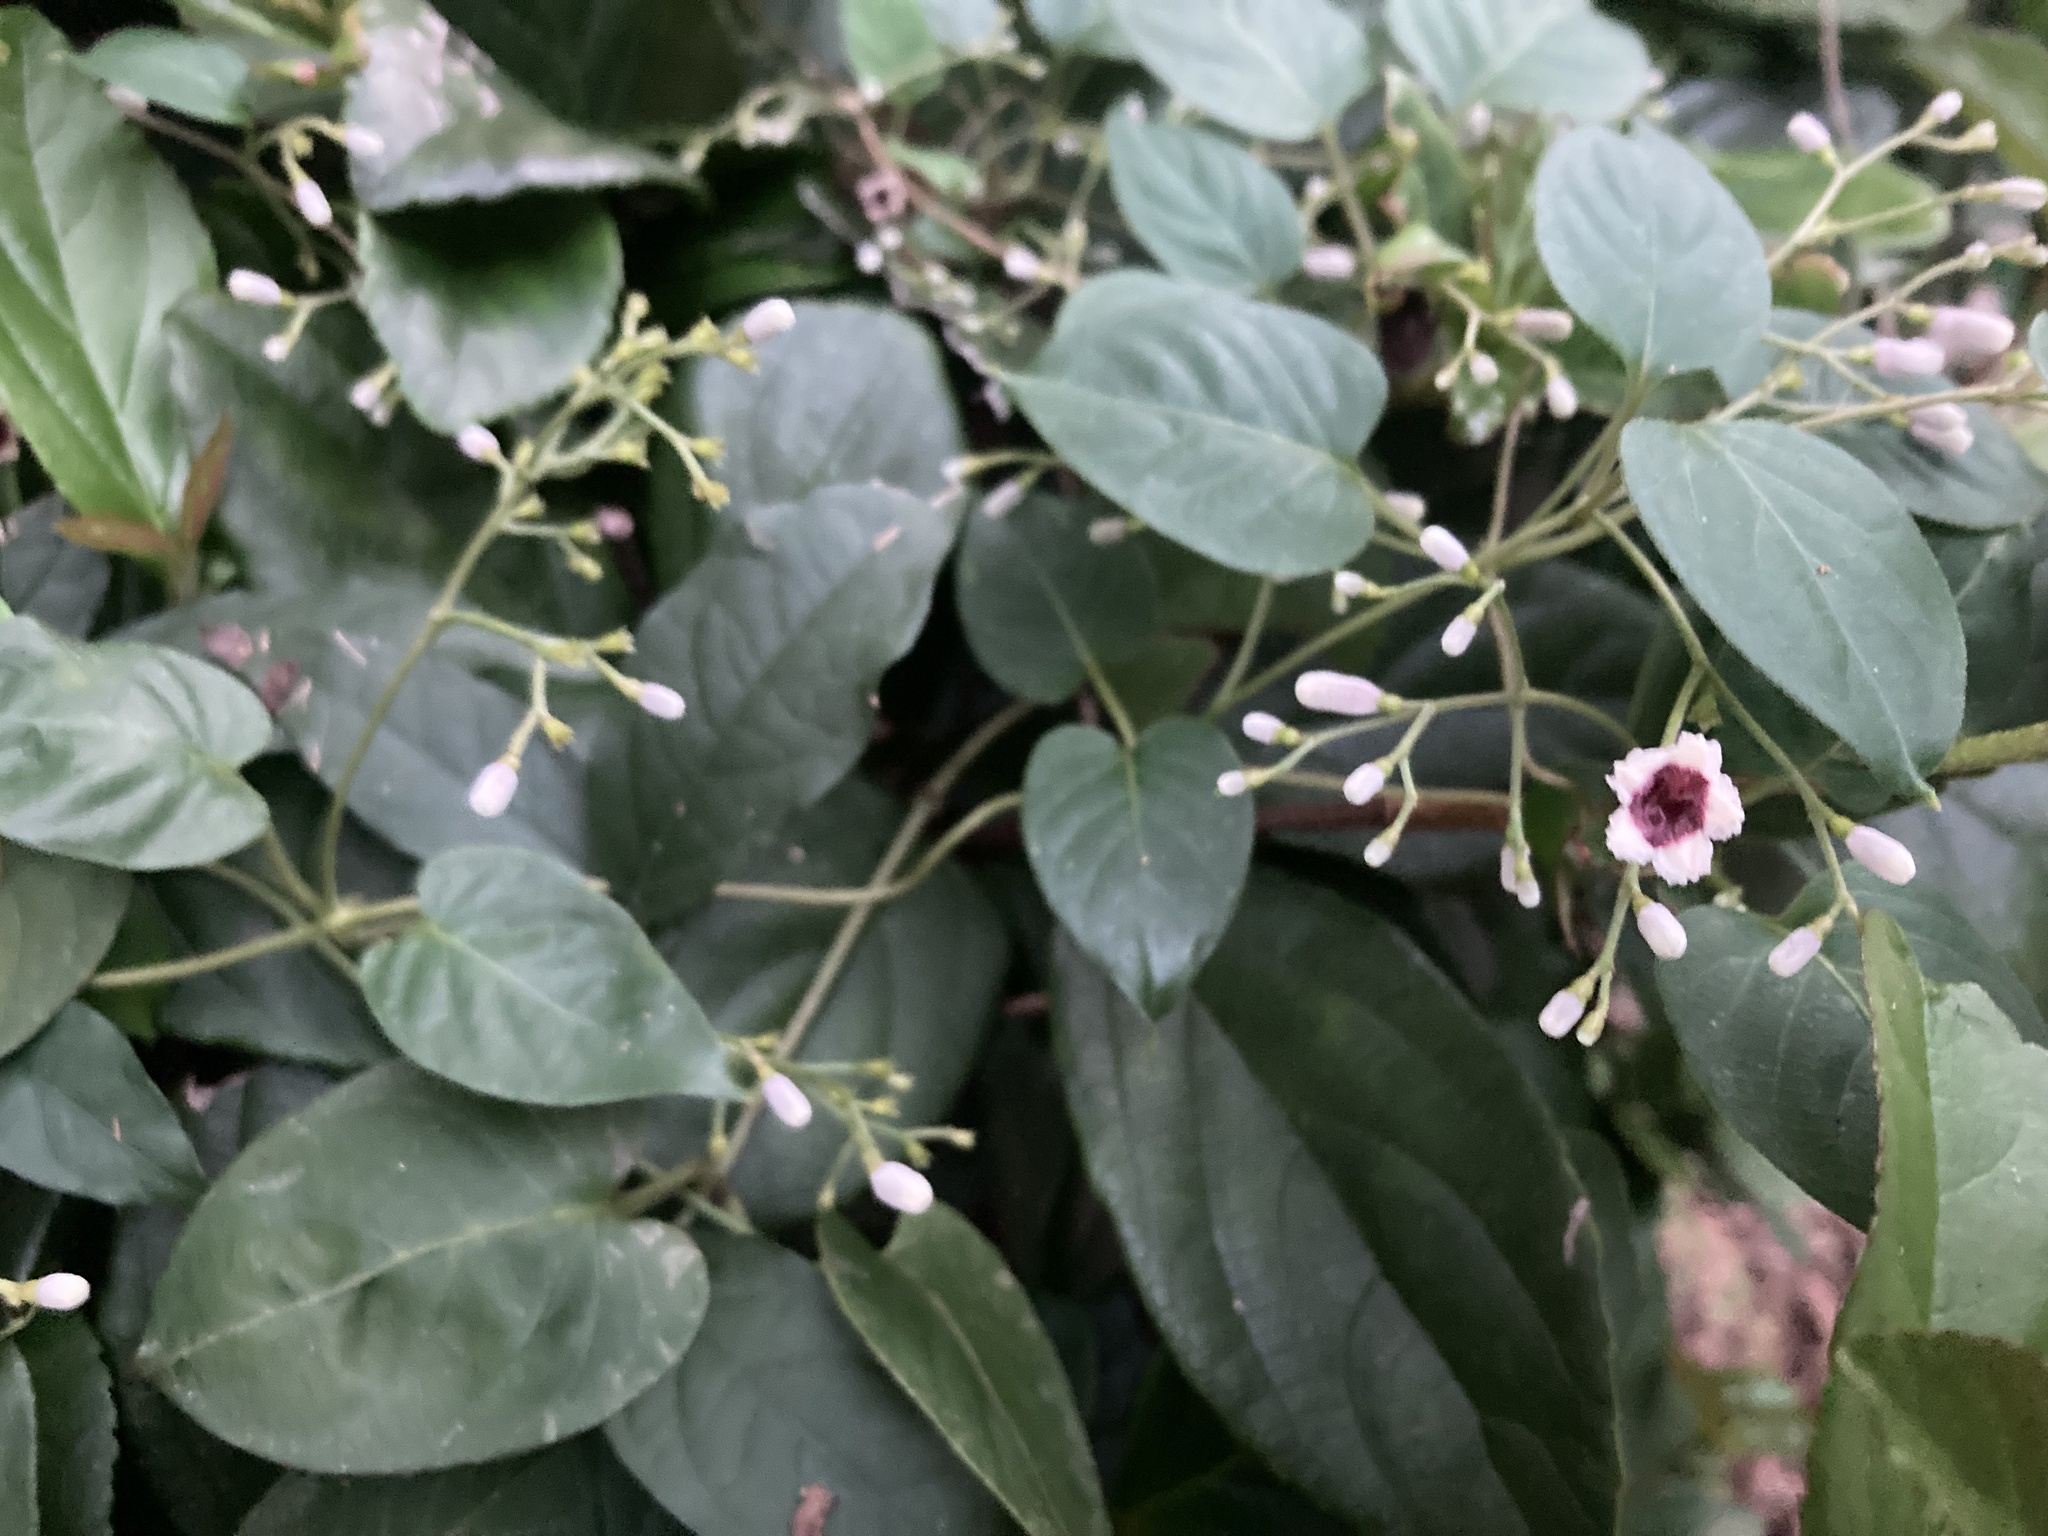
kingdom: Plantae
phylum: Tracheophyta
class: Magnoliopsida
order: Gentianales
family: Rubiaceae
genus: Paederia
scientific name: Paederia foetida
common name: Stinkvine
